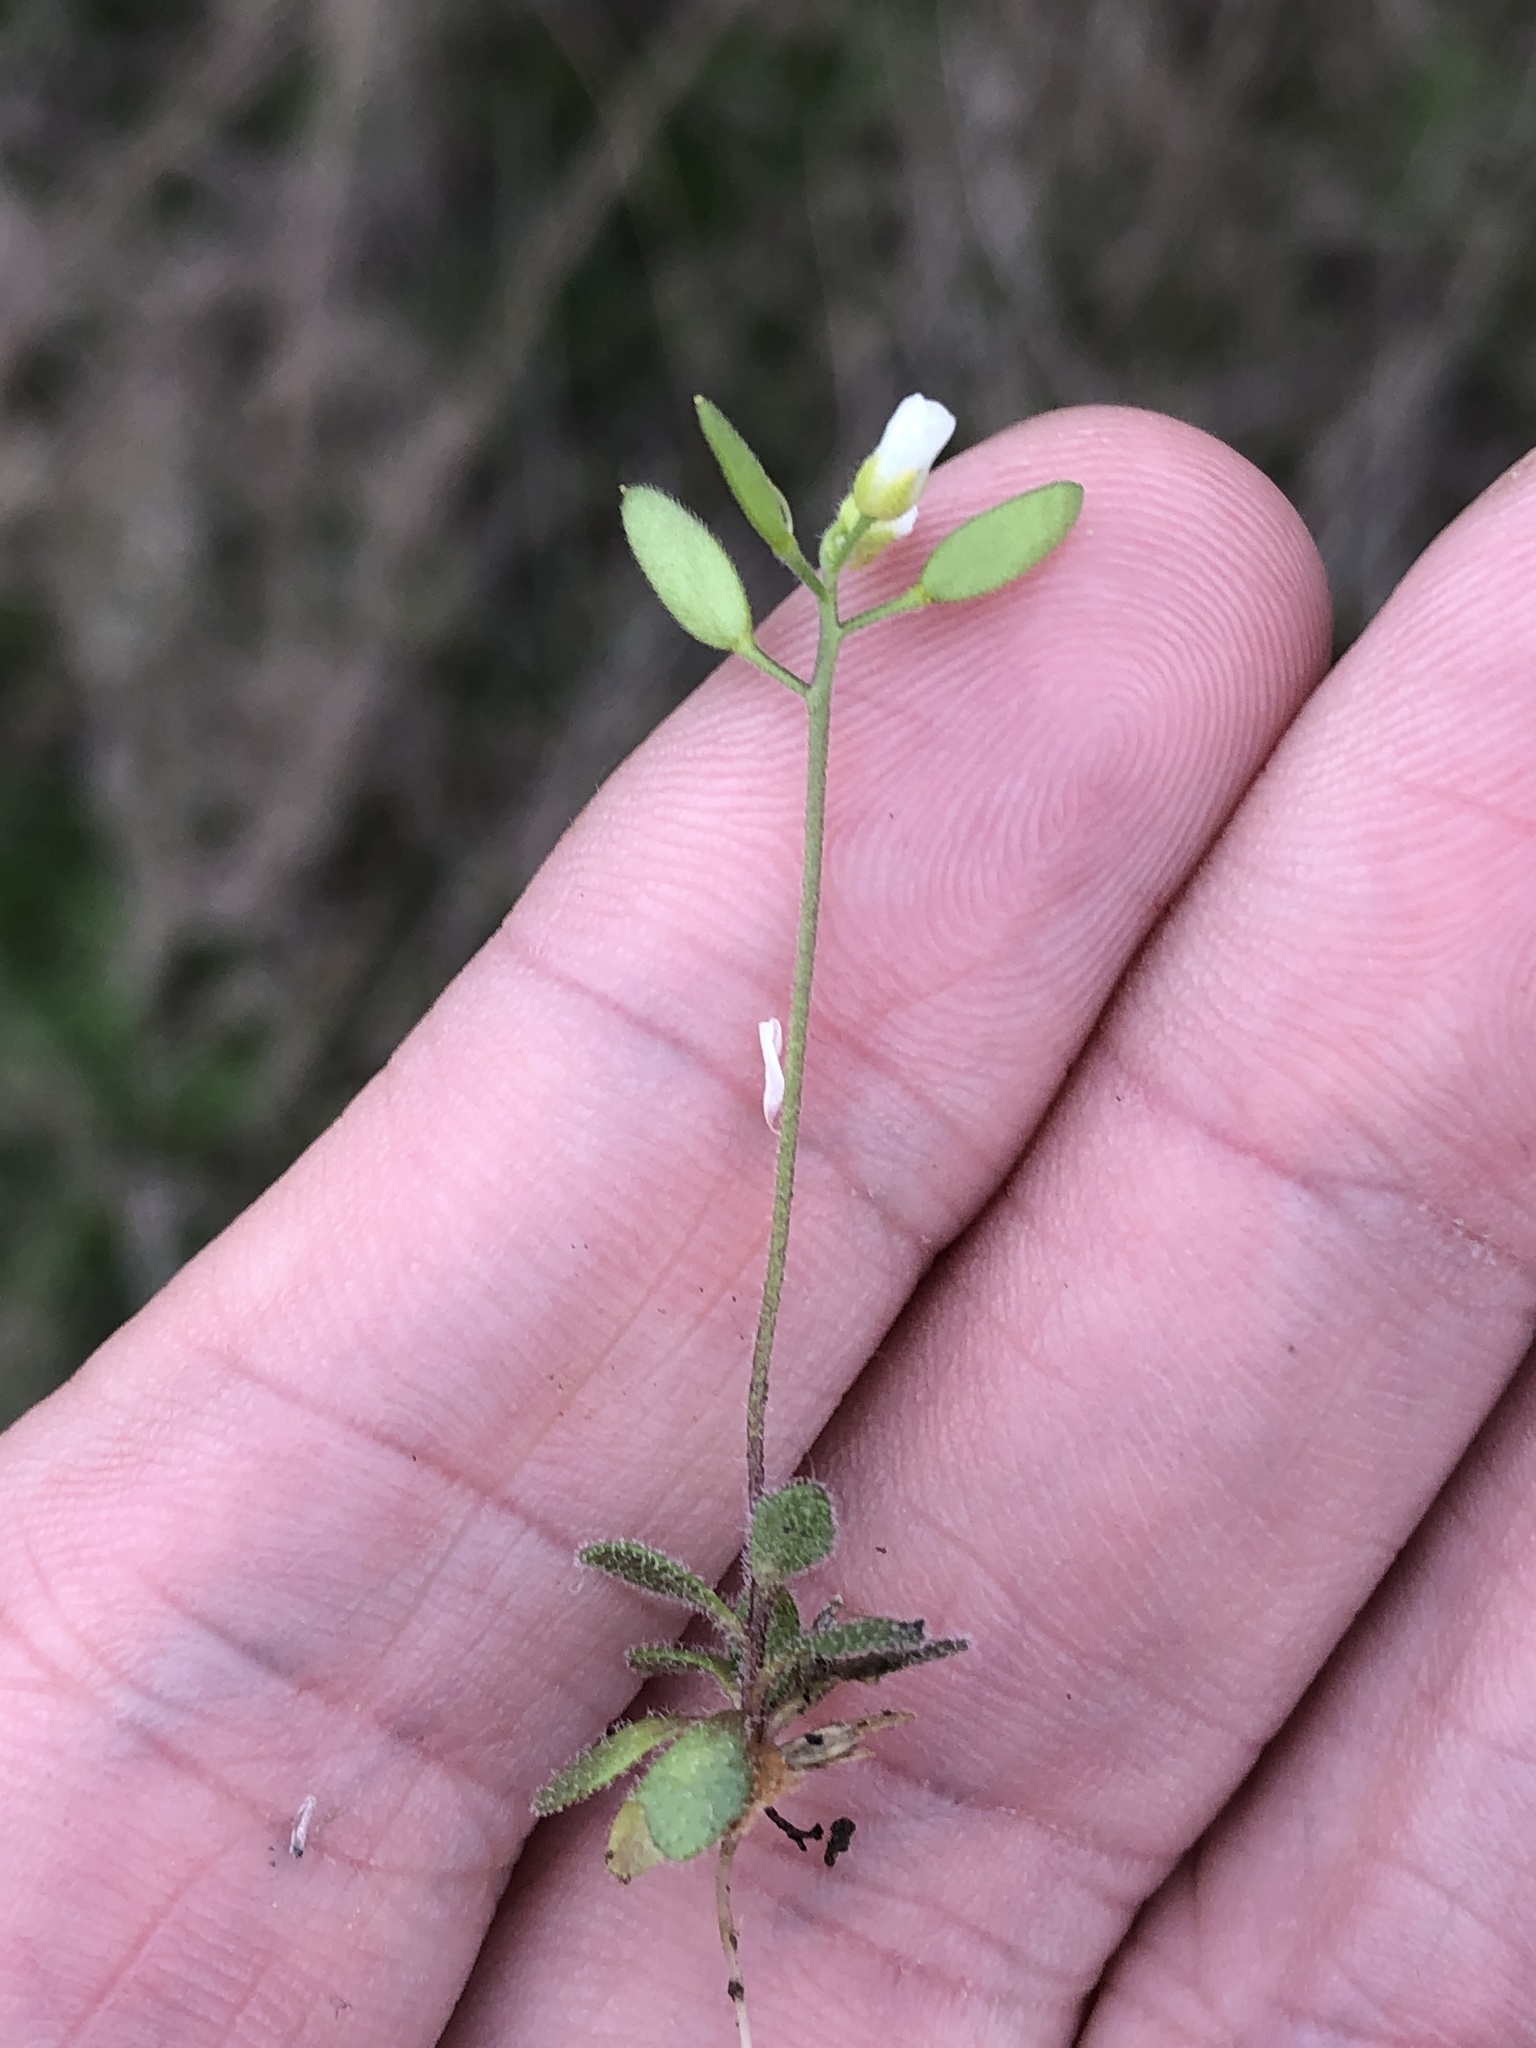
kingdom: Plantae
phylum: Tracheophyta
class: Magnoliopsida
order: Brassicales
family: Brassicaceae
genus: Tomostima
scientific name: Tomostima cuneifolia
